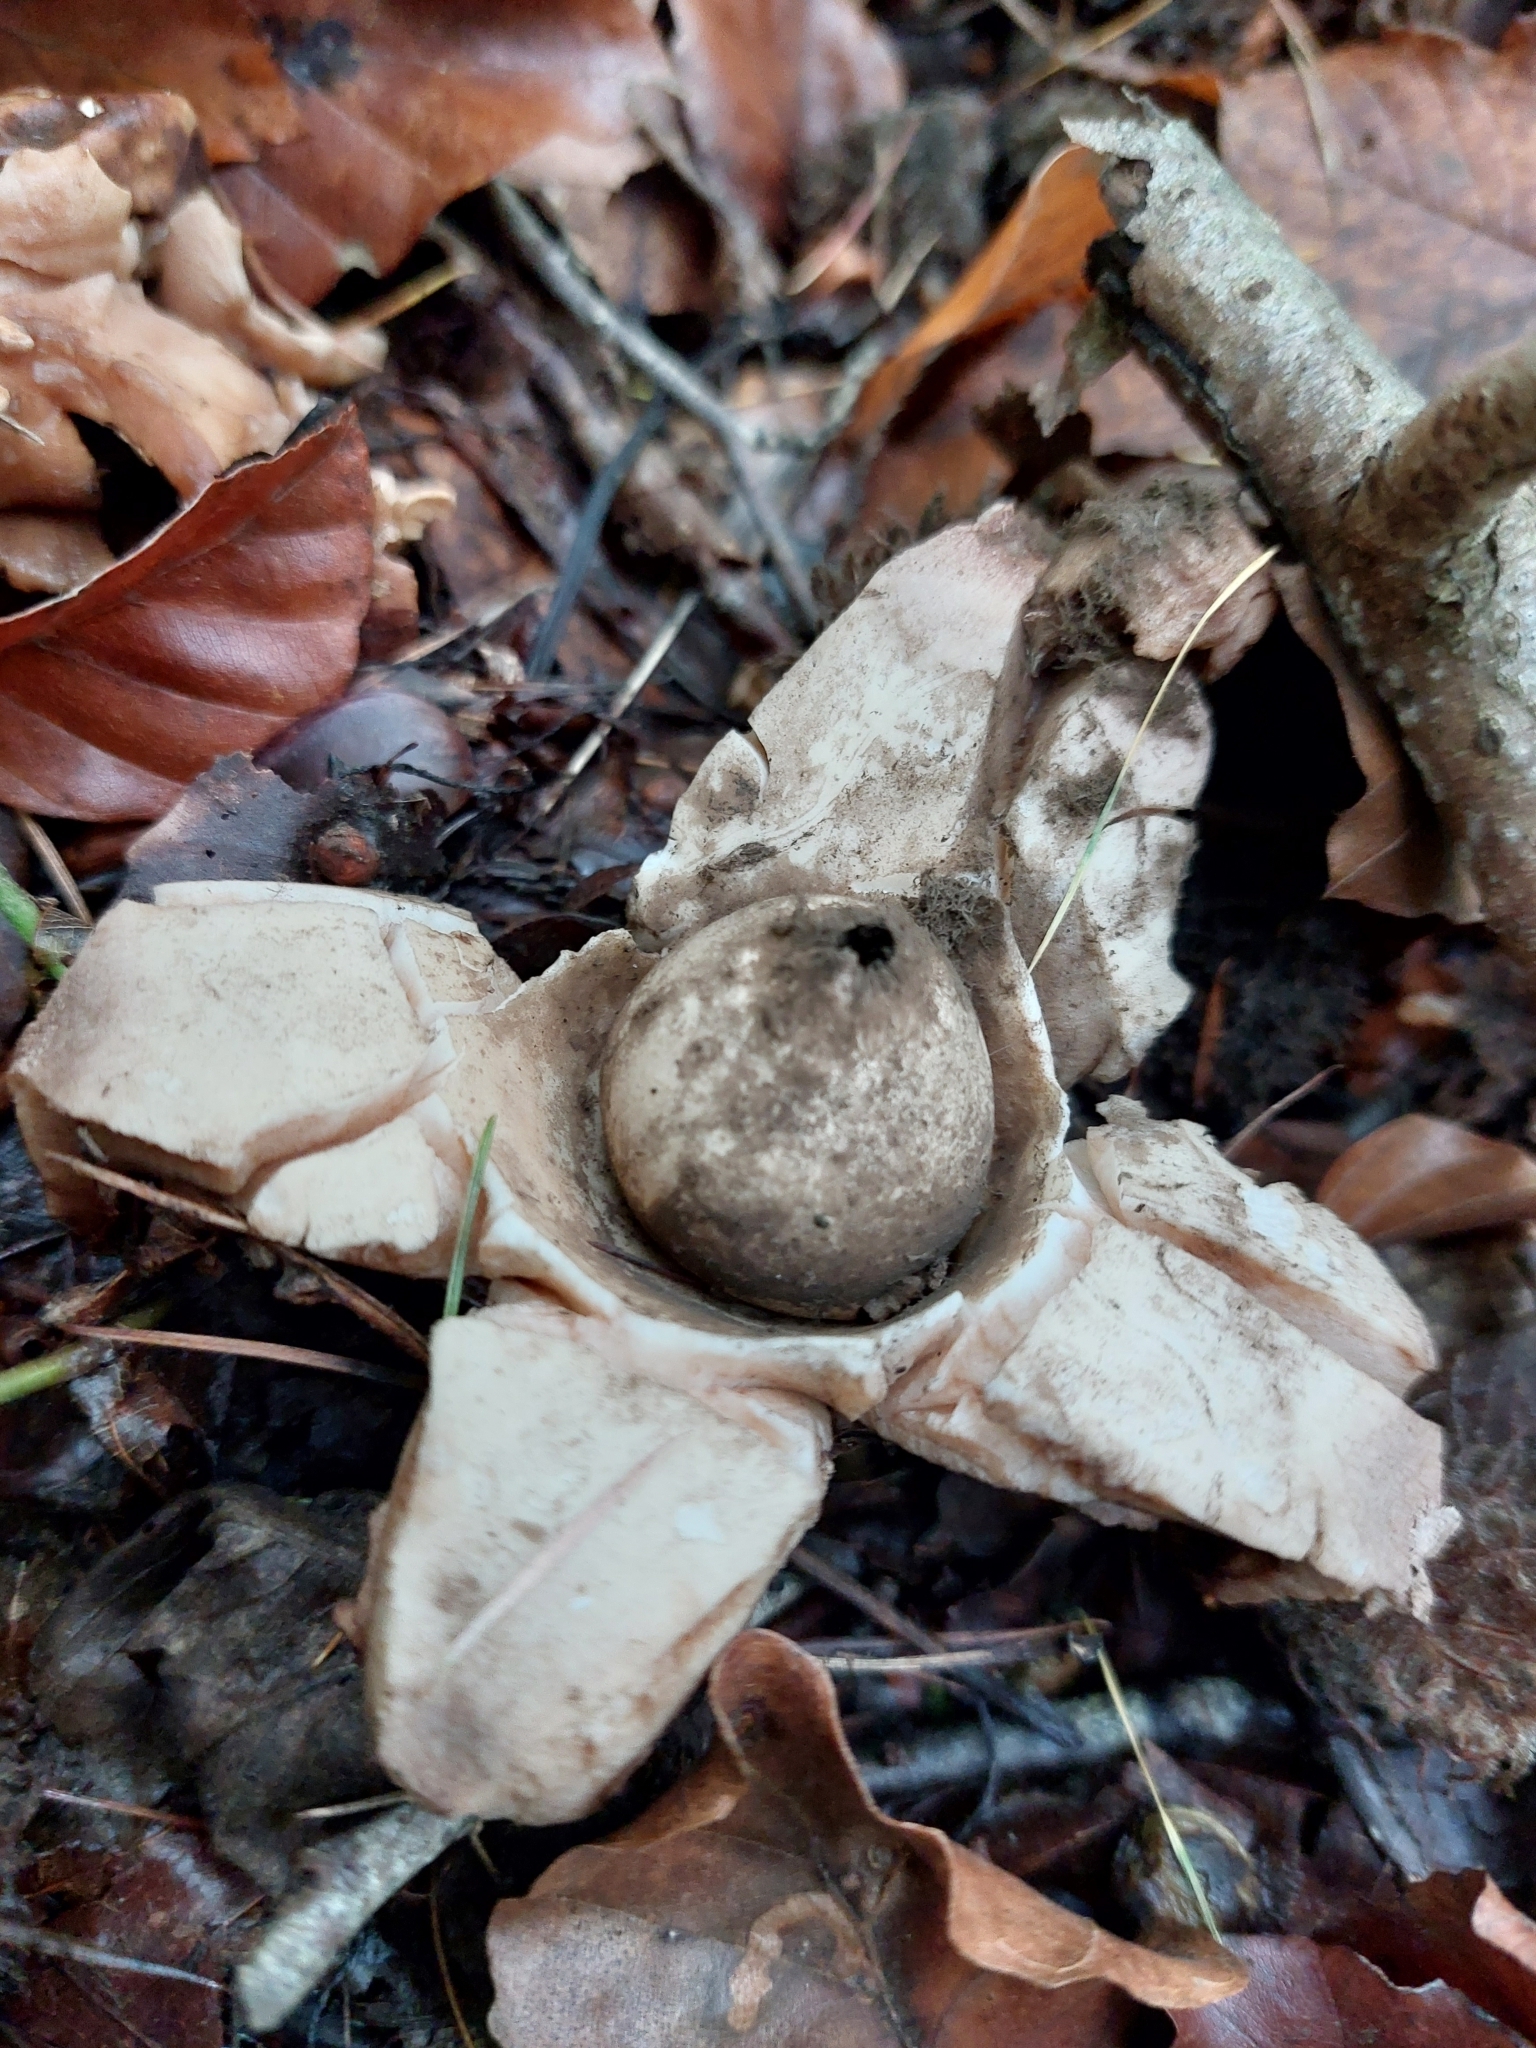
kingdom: Fungi
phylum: Basidiomycota
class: Agaricomycetes
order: Geastrales
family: Geastraceae
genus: Geastrum
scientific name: Geastrum triplex
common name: Collared earthstar
